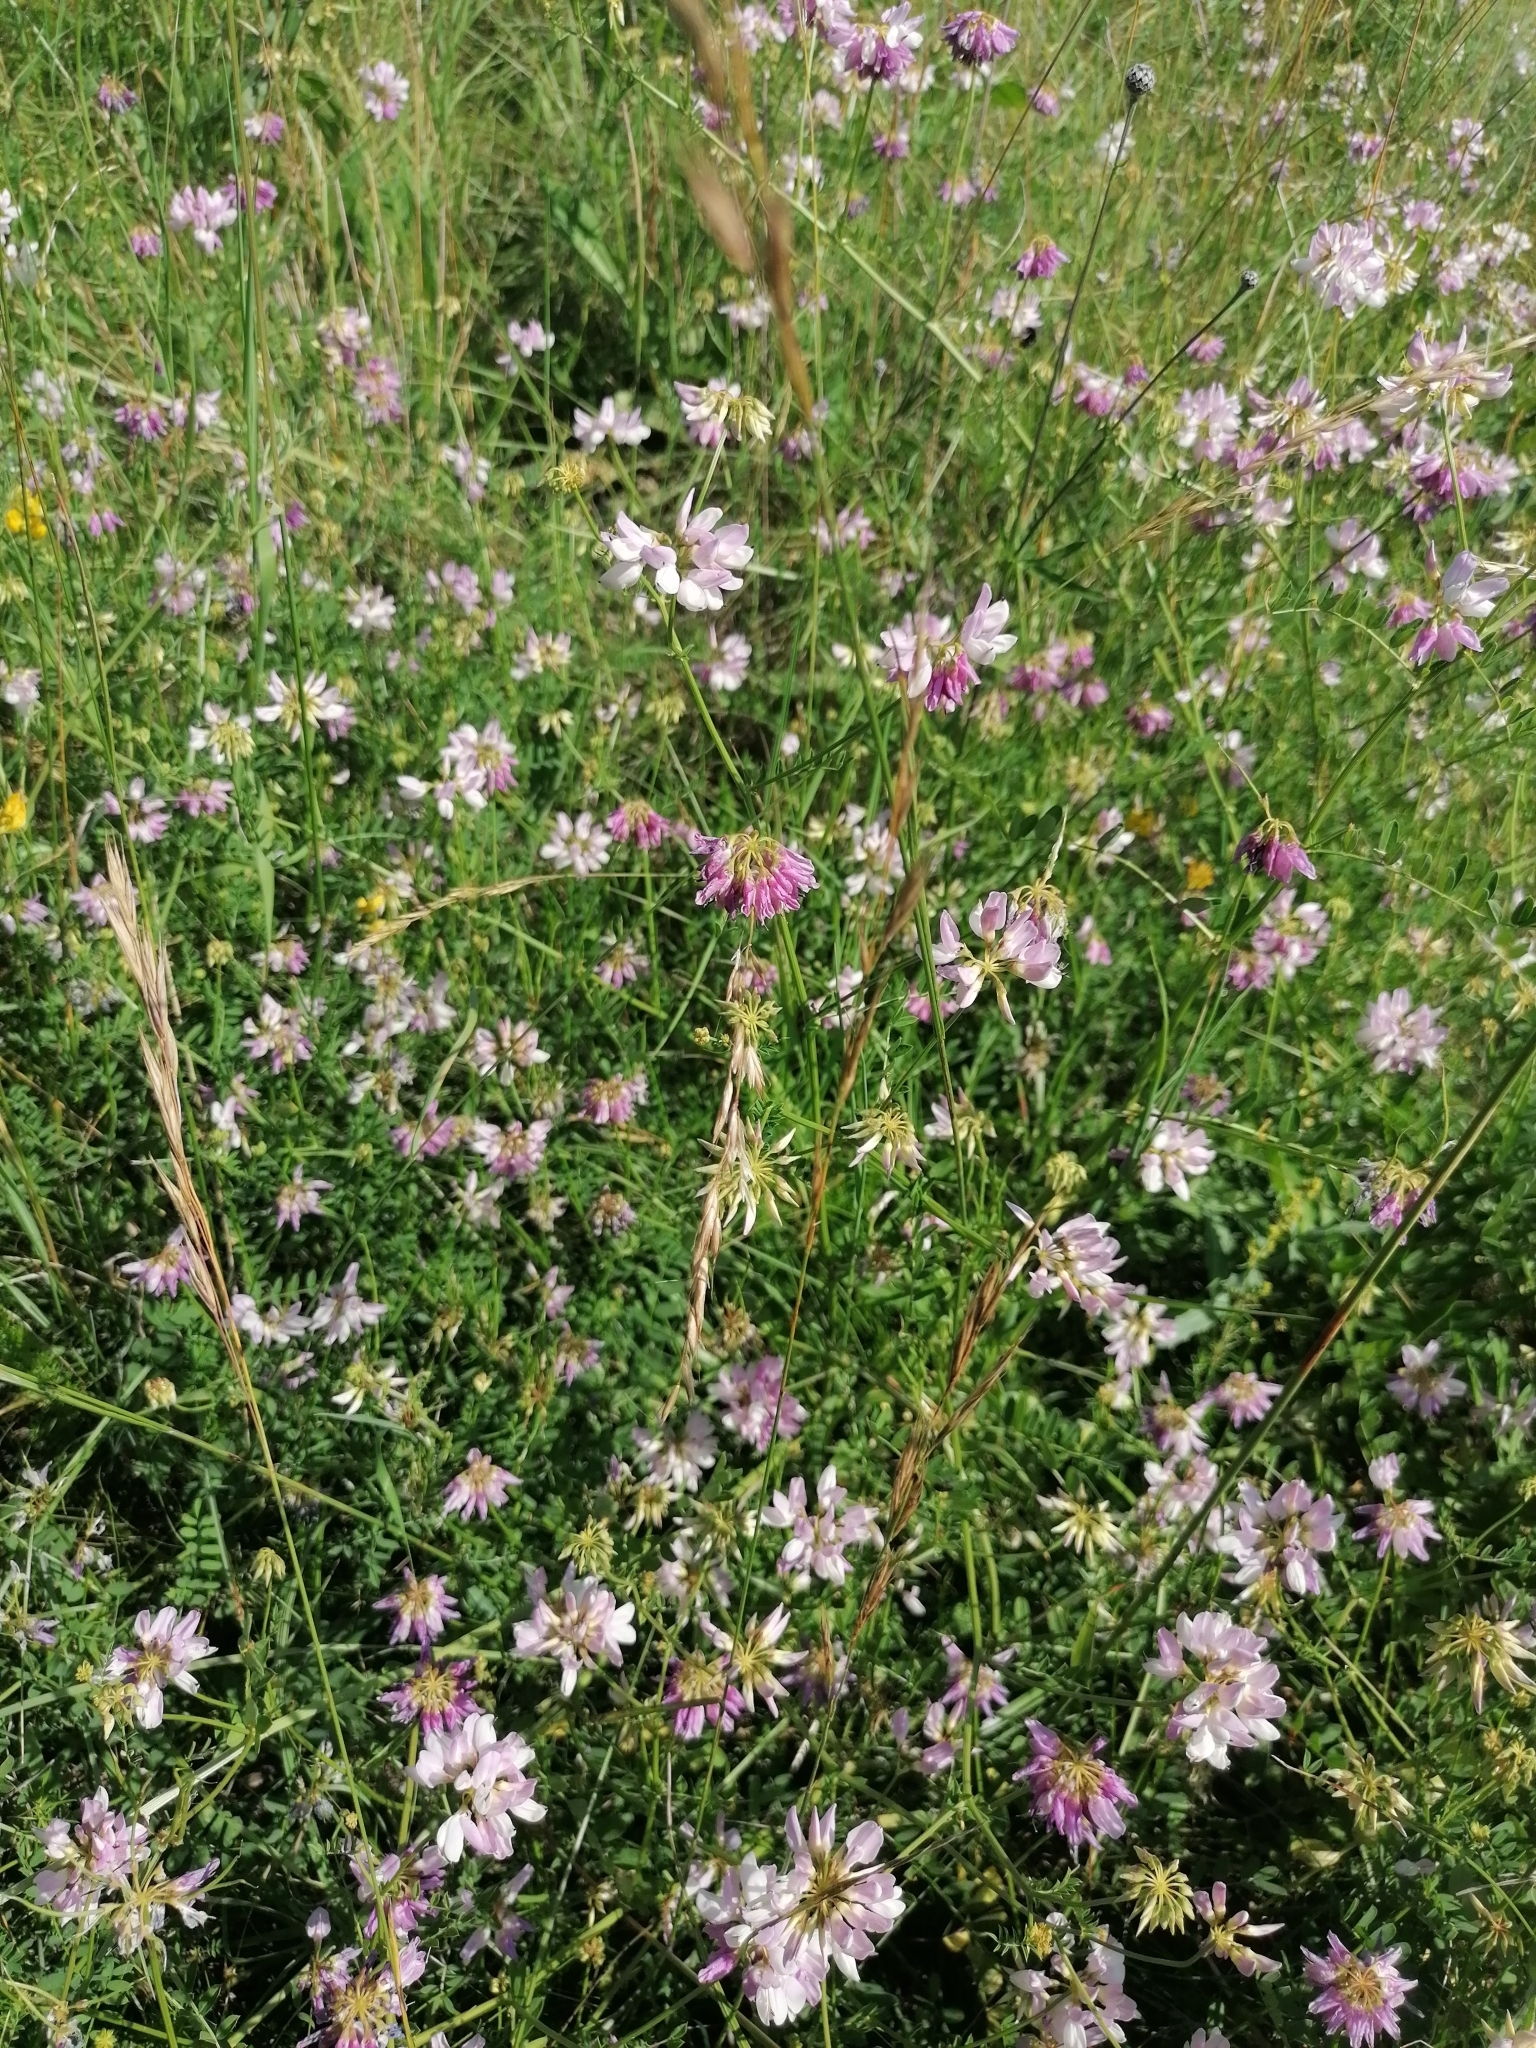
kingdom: Plantae
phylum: Tracheophyta
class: Magnoliopsida
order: Fabales
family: Fabaceae
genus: Coronilla
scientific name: Coronilla varia
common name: Crownvetch
